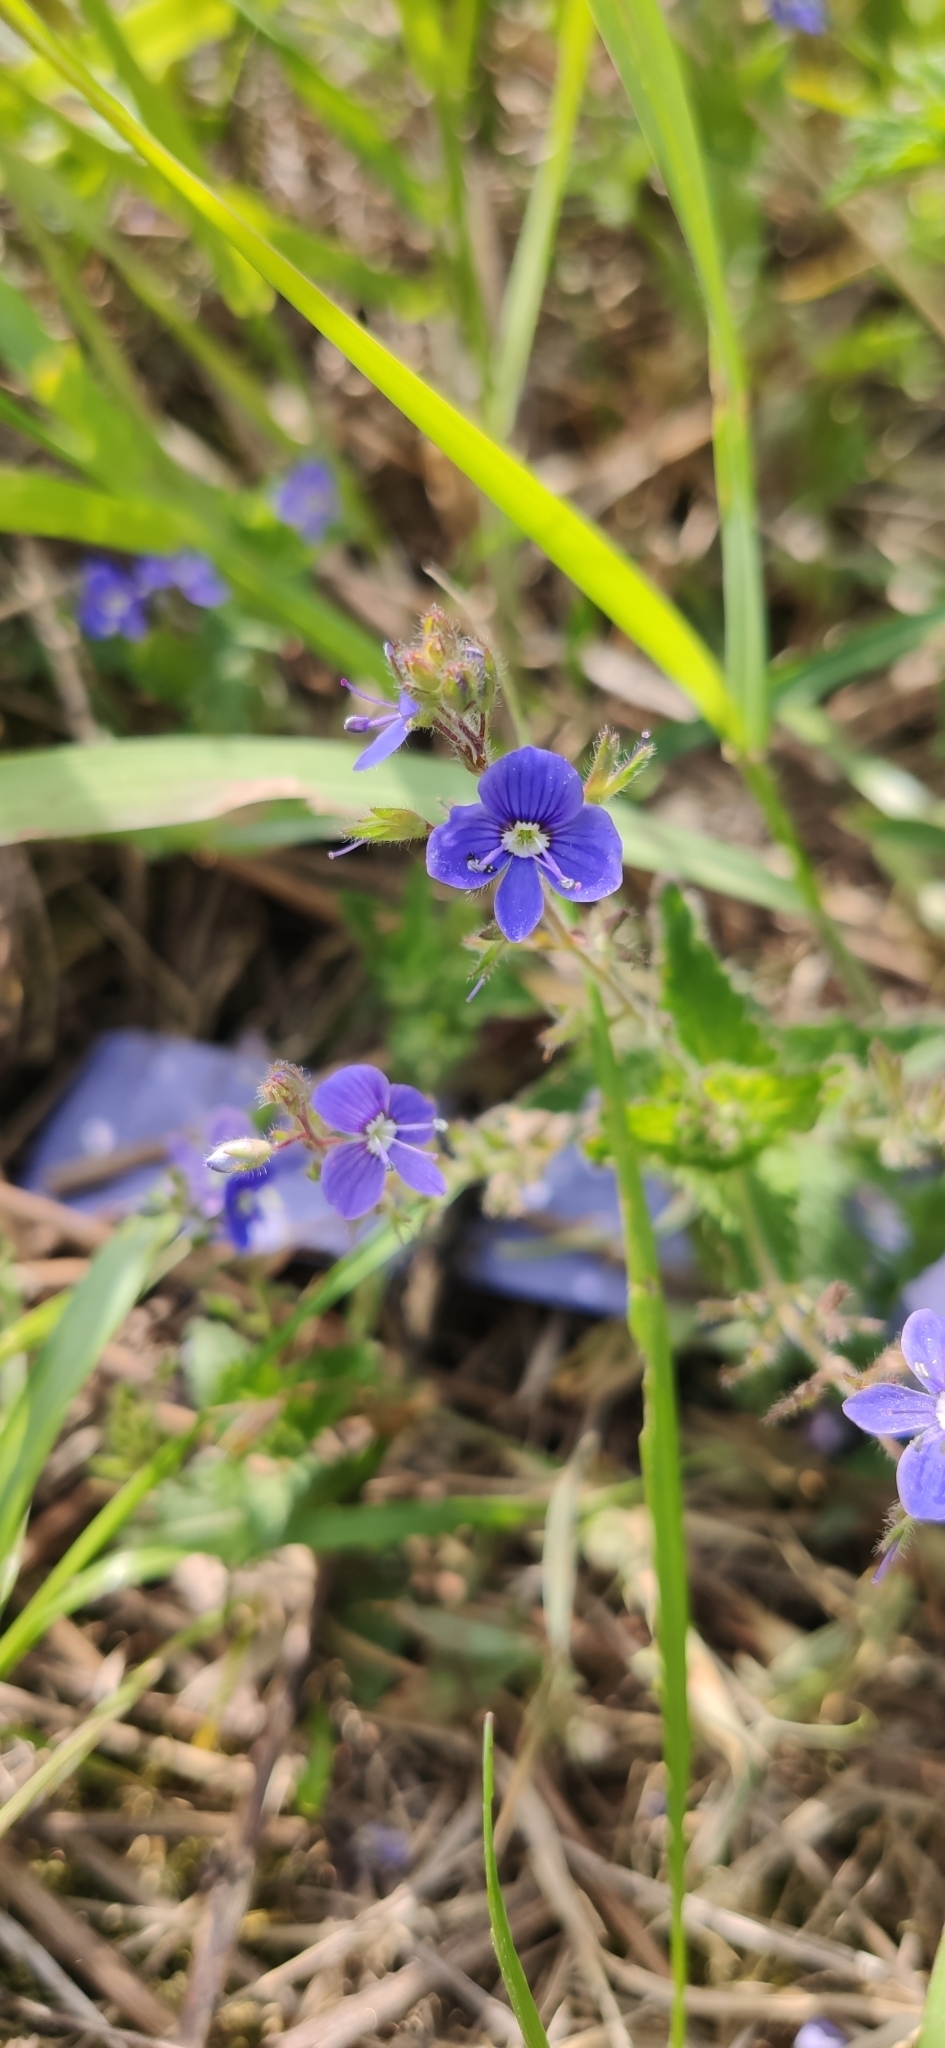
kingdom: Plantae
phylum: Tracheophyta
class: Magnoliopsida
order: Lamiales
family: Plantaginaceae
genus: Veronica
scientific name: Veronica chamaedrys
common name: Germander speedwell
